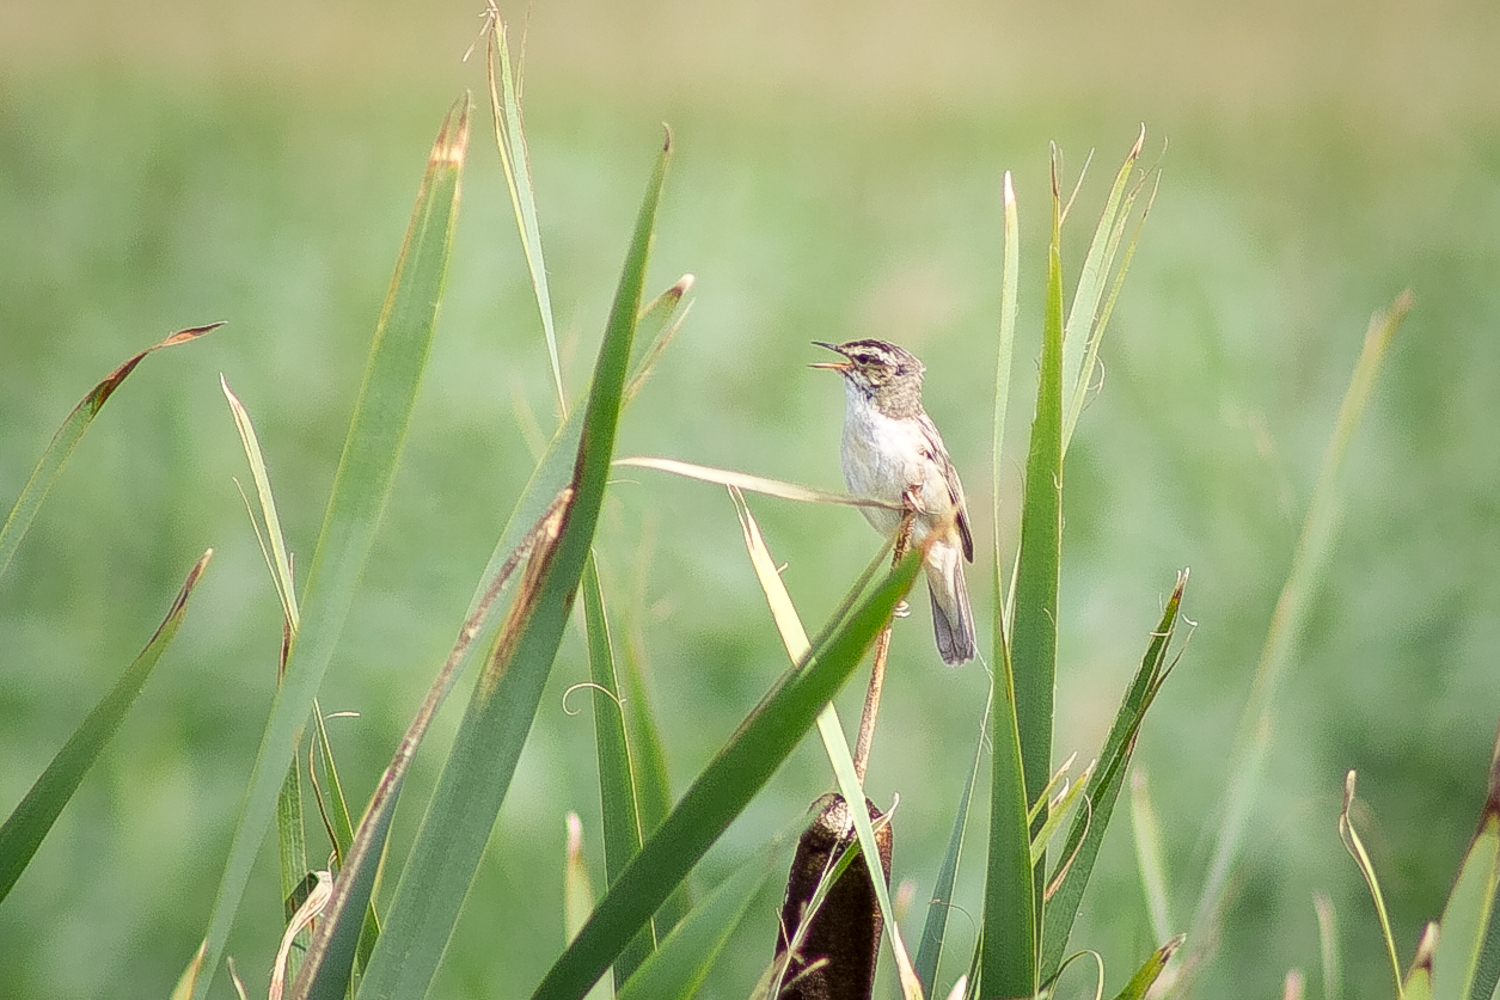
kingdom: Animalia
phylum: Chordata
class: Aves
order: Passeriformes
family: Acrocephalidae
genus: Acrocephalus
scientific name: Acrocephalus schoenobaenus
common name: Sedge warbler
